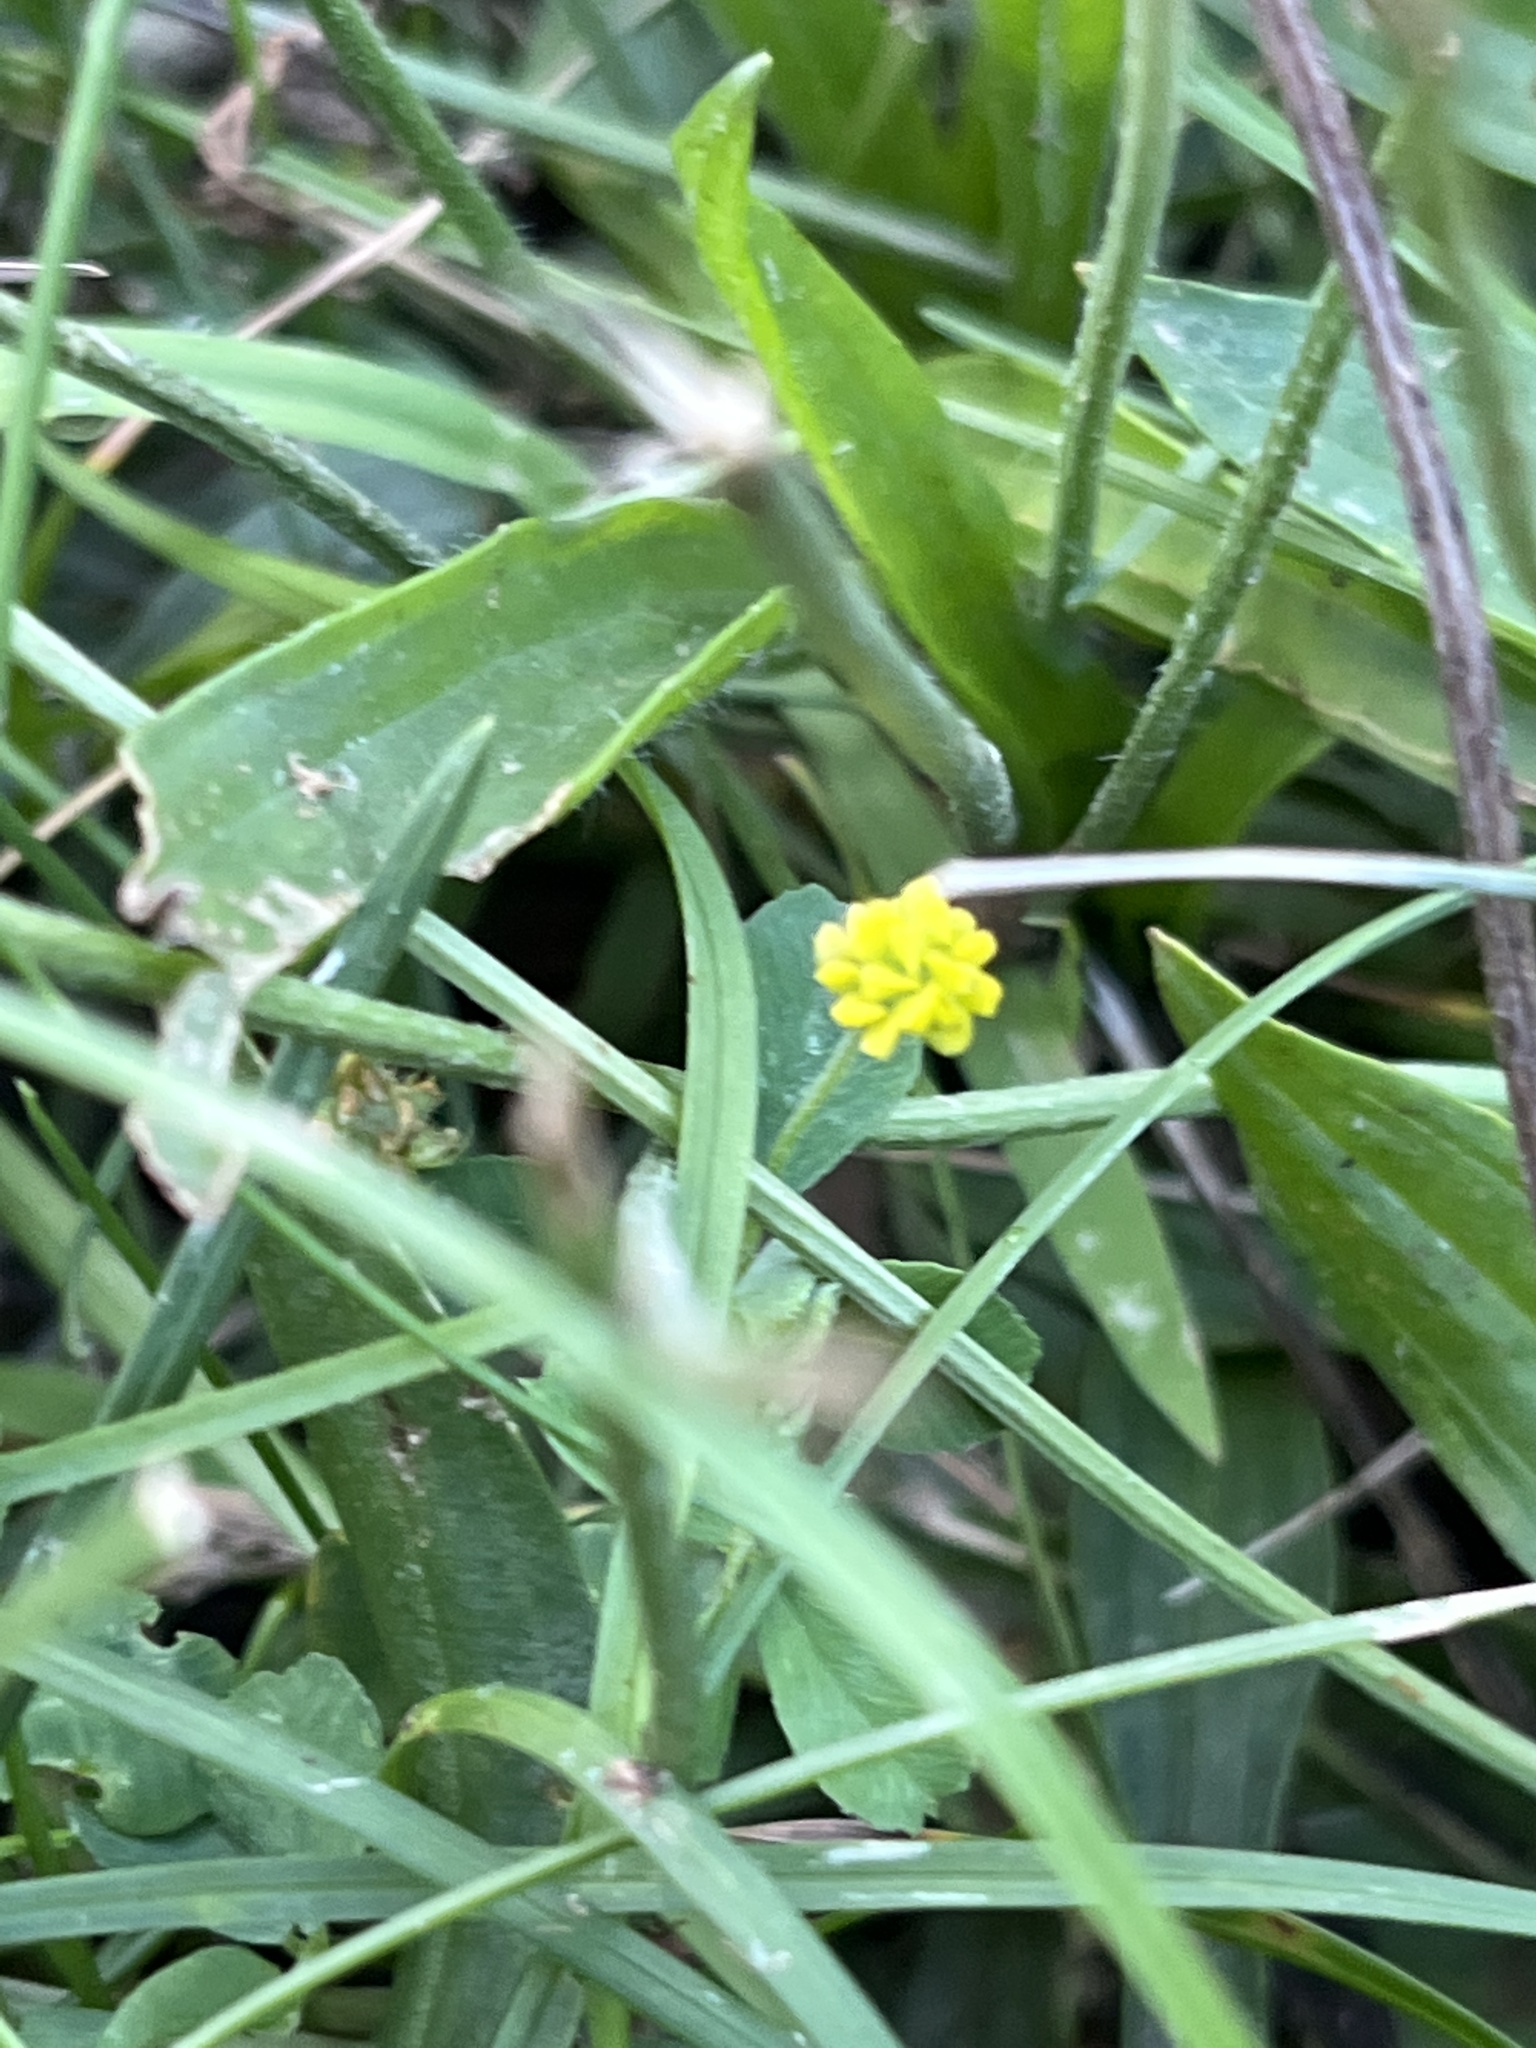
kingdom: Plantae
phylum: Tracheophyta
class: Magnoliopsida
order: Fabales
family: Fabaceae
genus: Medicago
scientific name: Medicago lupulina
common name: Black medick
